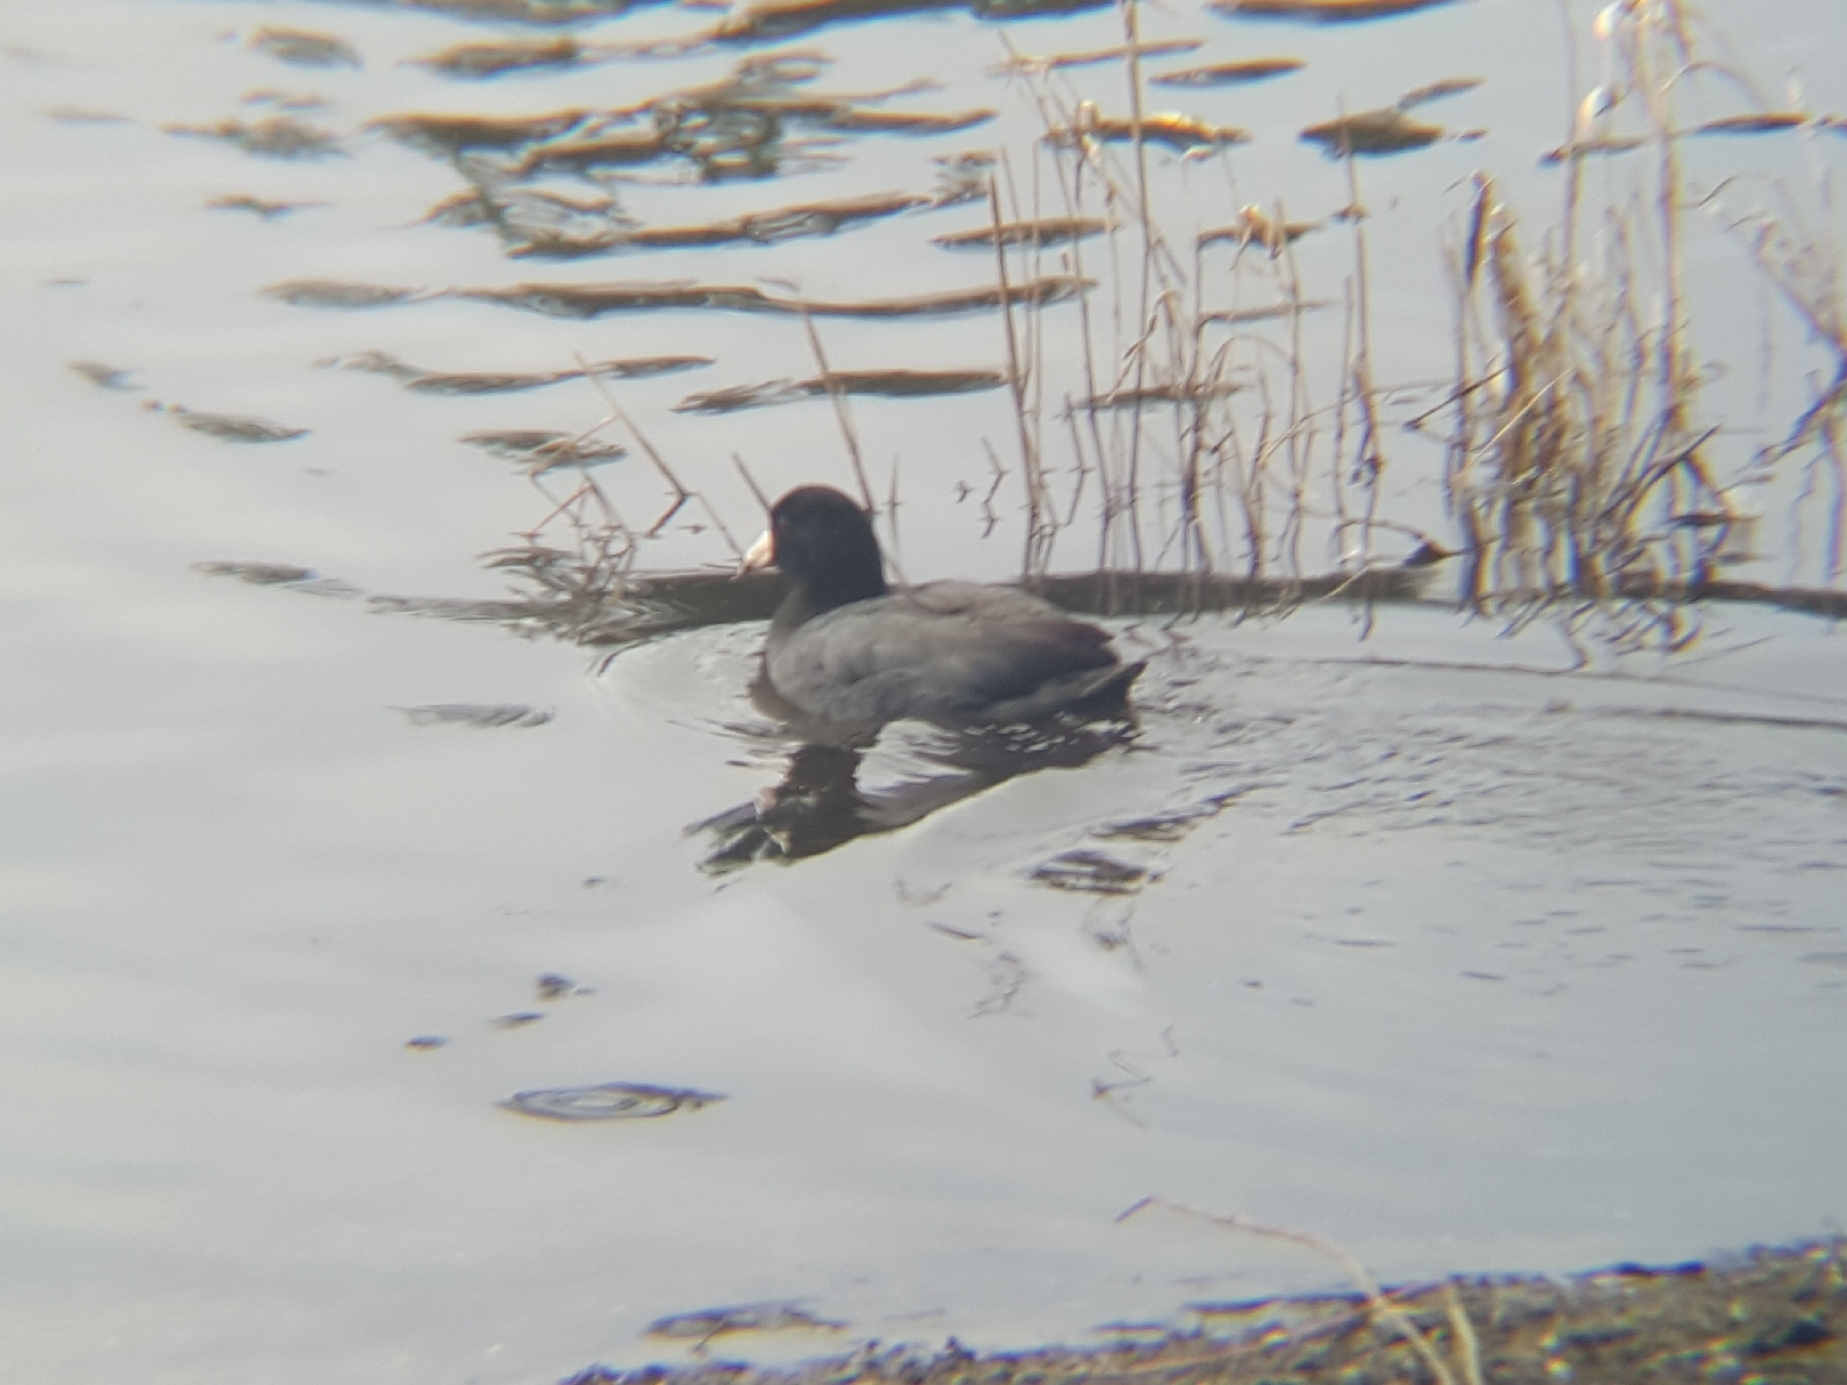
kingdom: Animalia
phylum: Chordata
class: Aves
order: Gruiformes
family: Rallidae
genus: Fulica
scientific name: Fulica americana
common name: American coot
